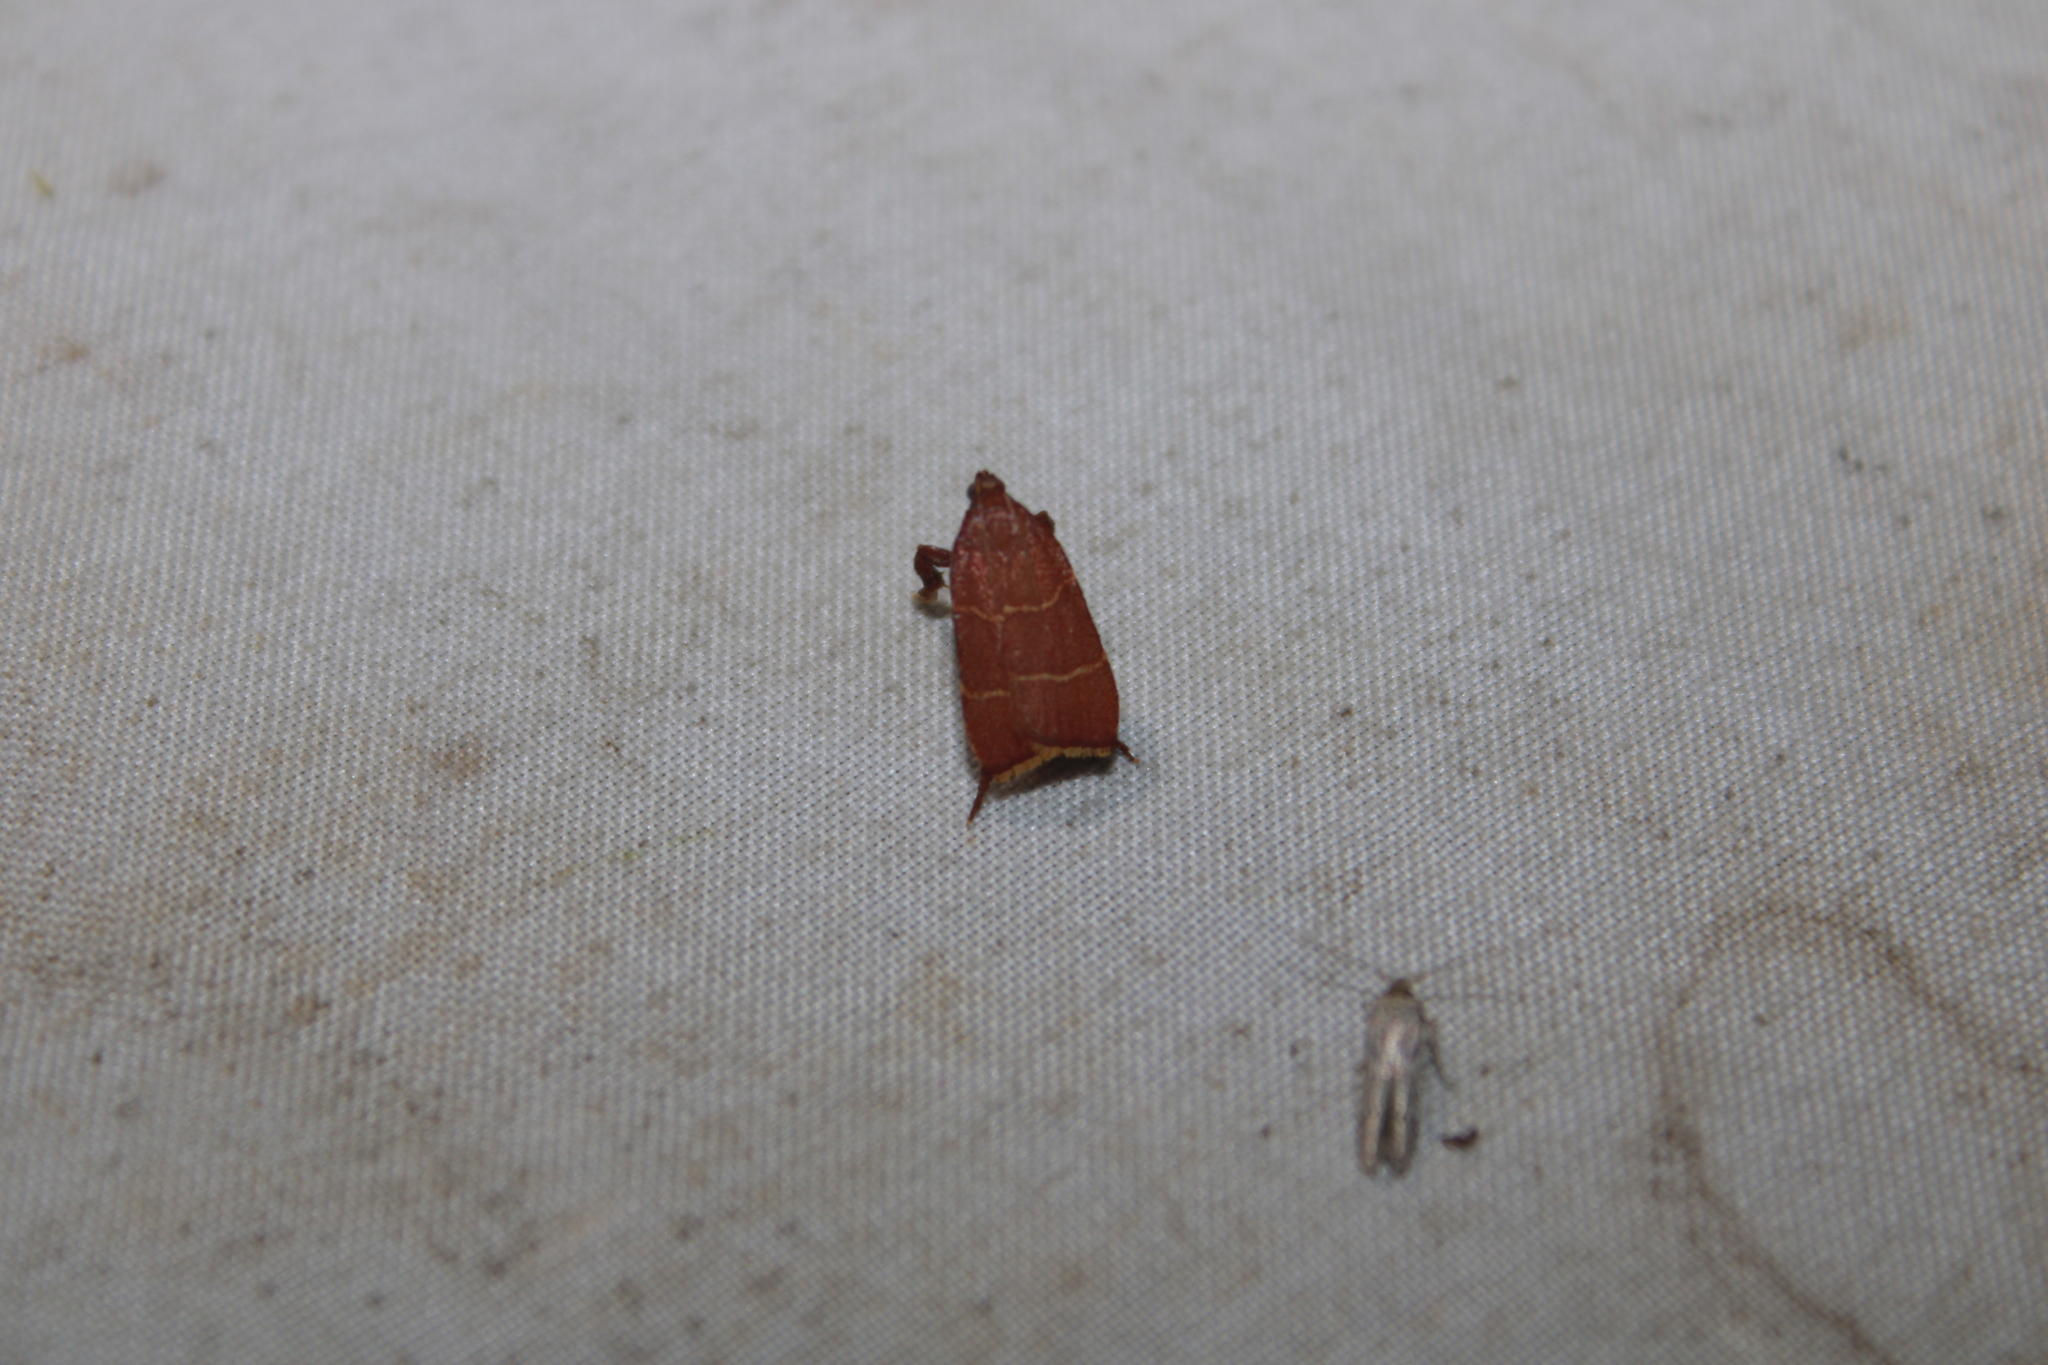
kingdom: Animalia
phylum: Arthropoda
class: Insecta
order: Lepidoptera
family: Pyralidae
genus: Parachma
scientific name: Parachma ochracealis
